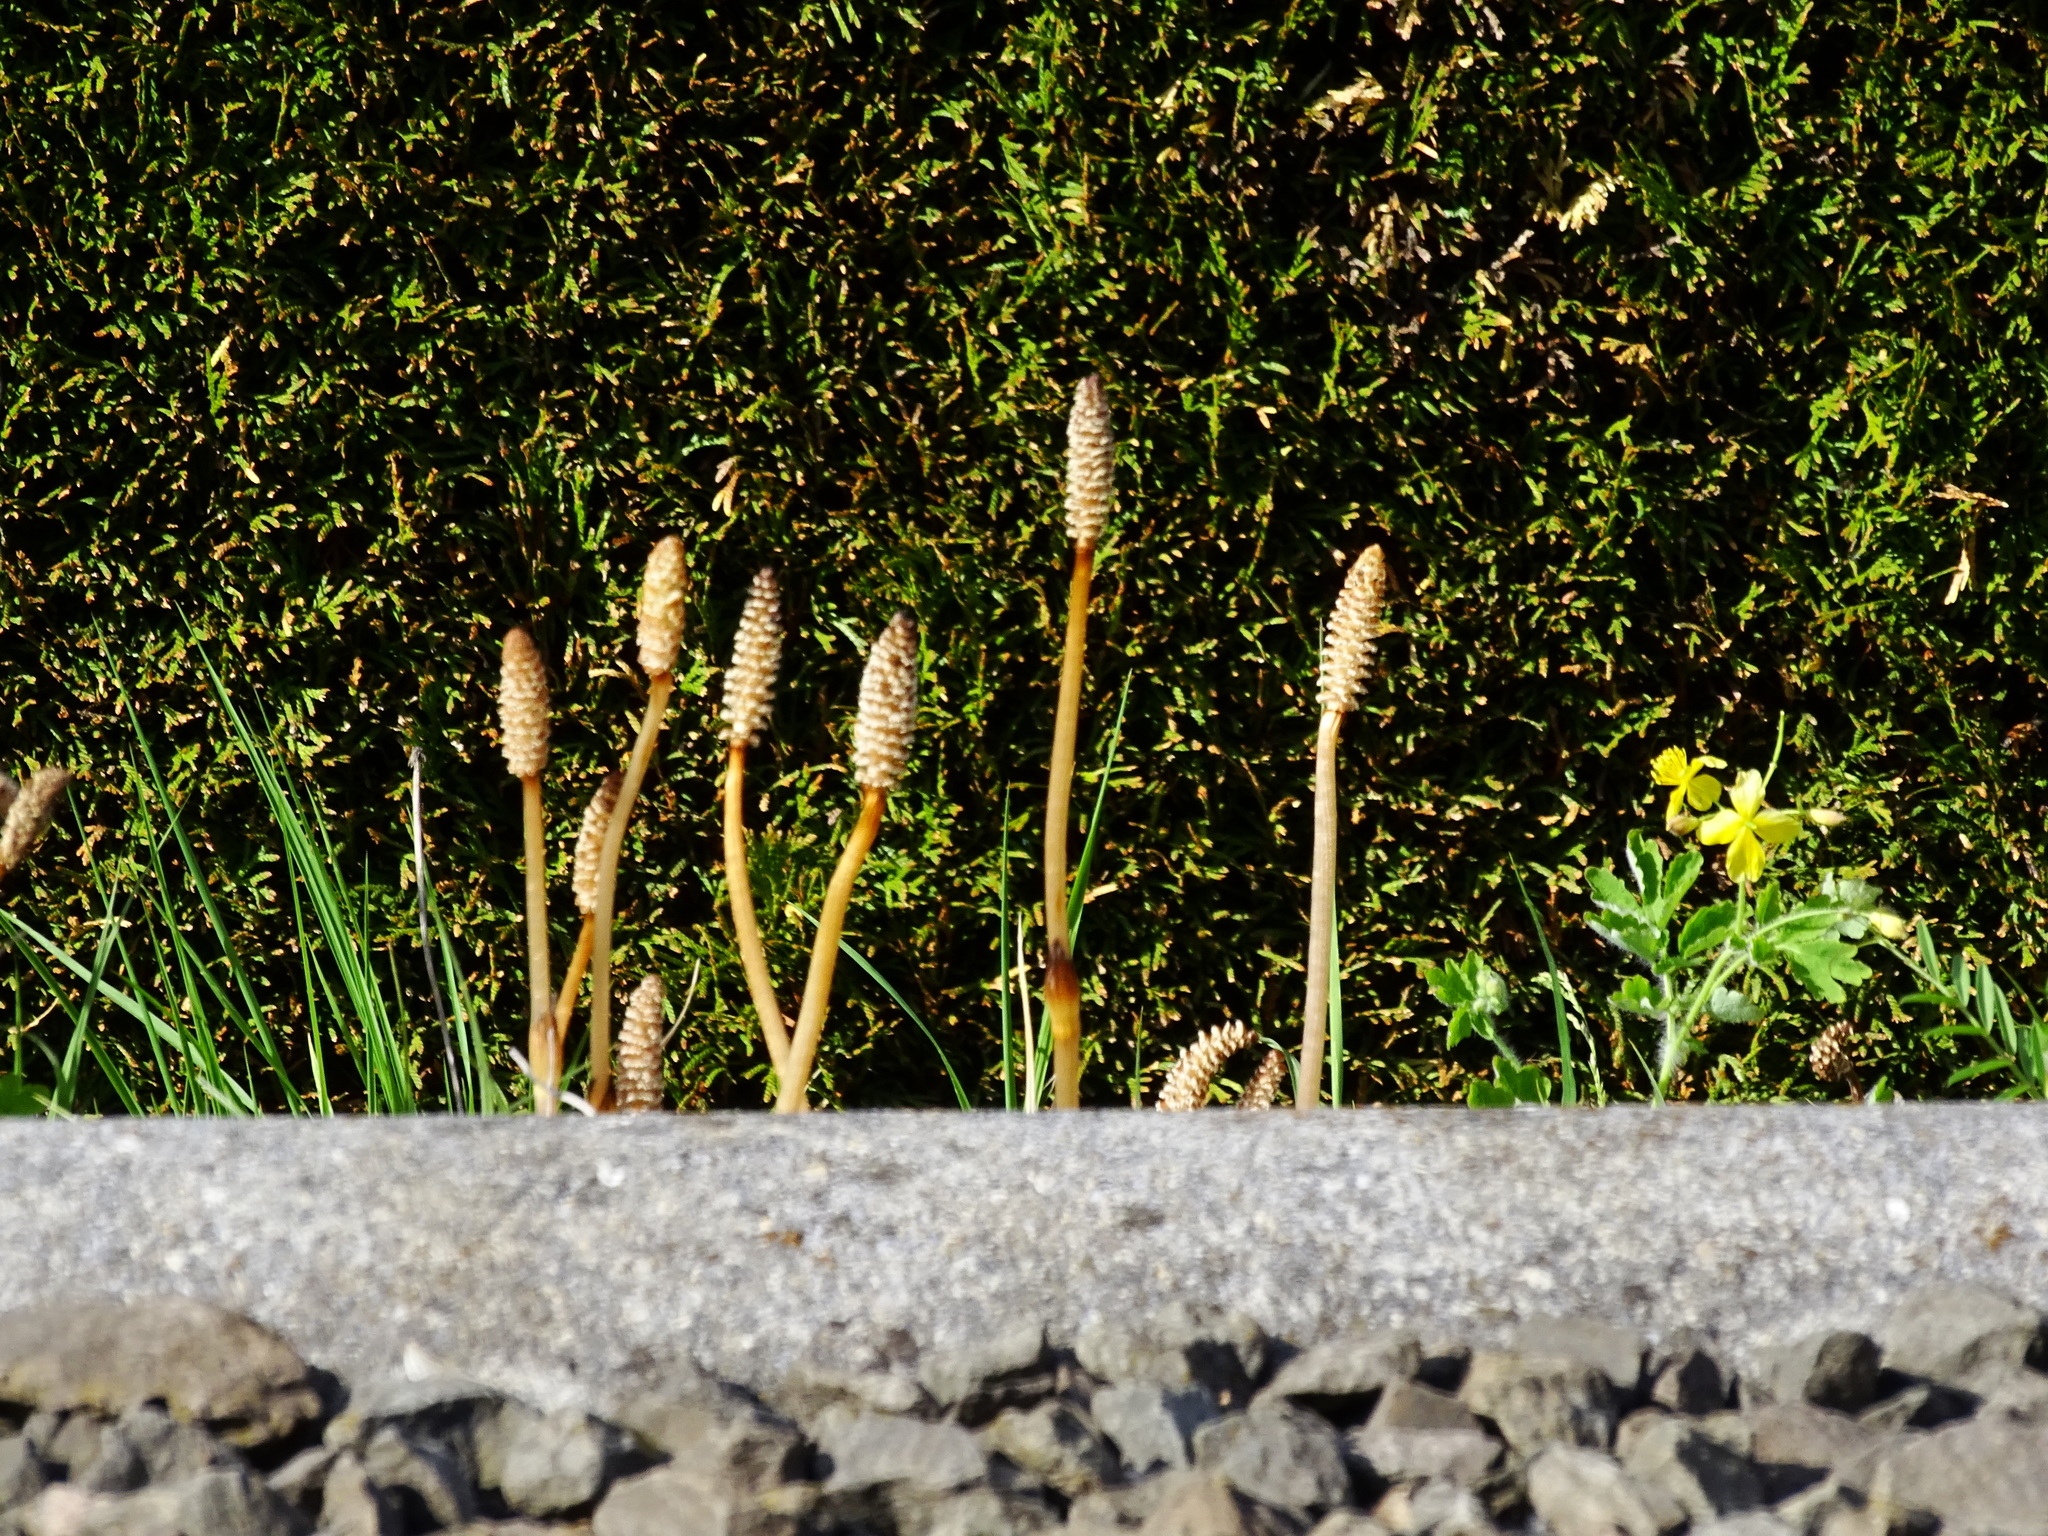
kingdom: Plantae
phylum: Tracheophyta
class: Polypodiopsida
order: Equisetales
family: Equisetaceae
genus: Equisetum
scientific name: Equisetum arvense
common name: Field horsetail
